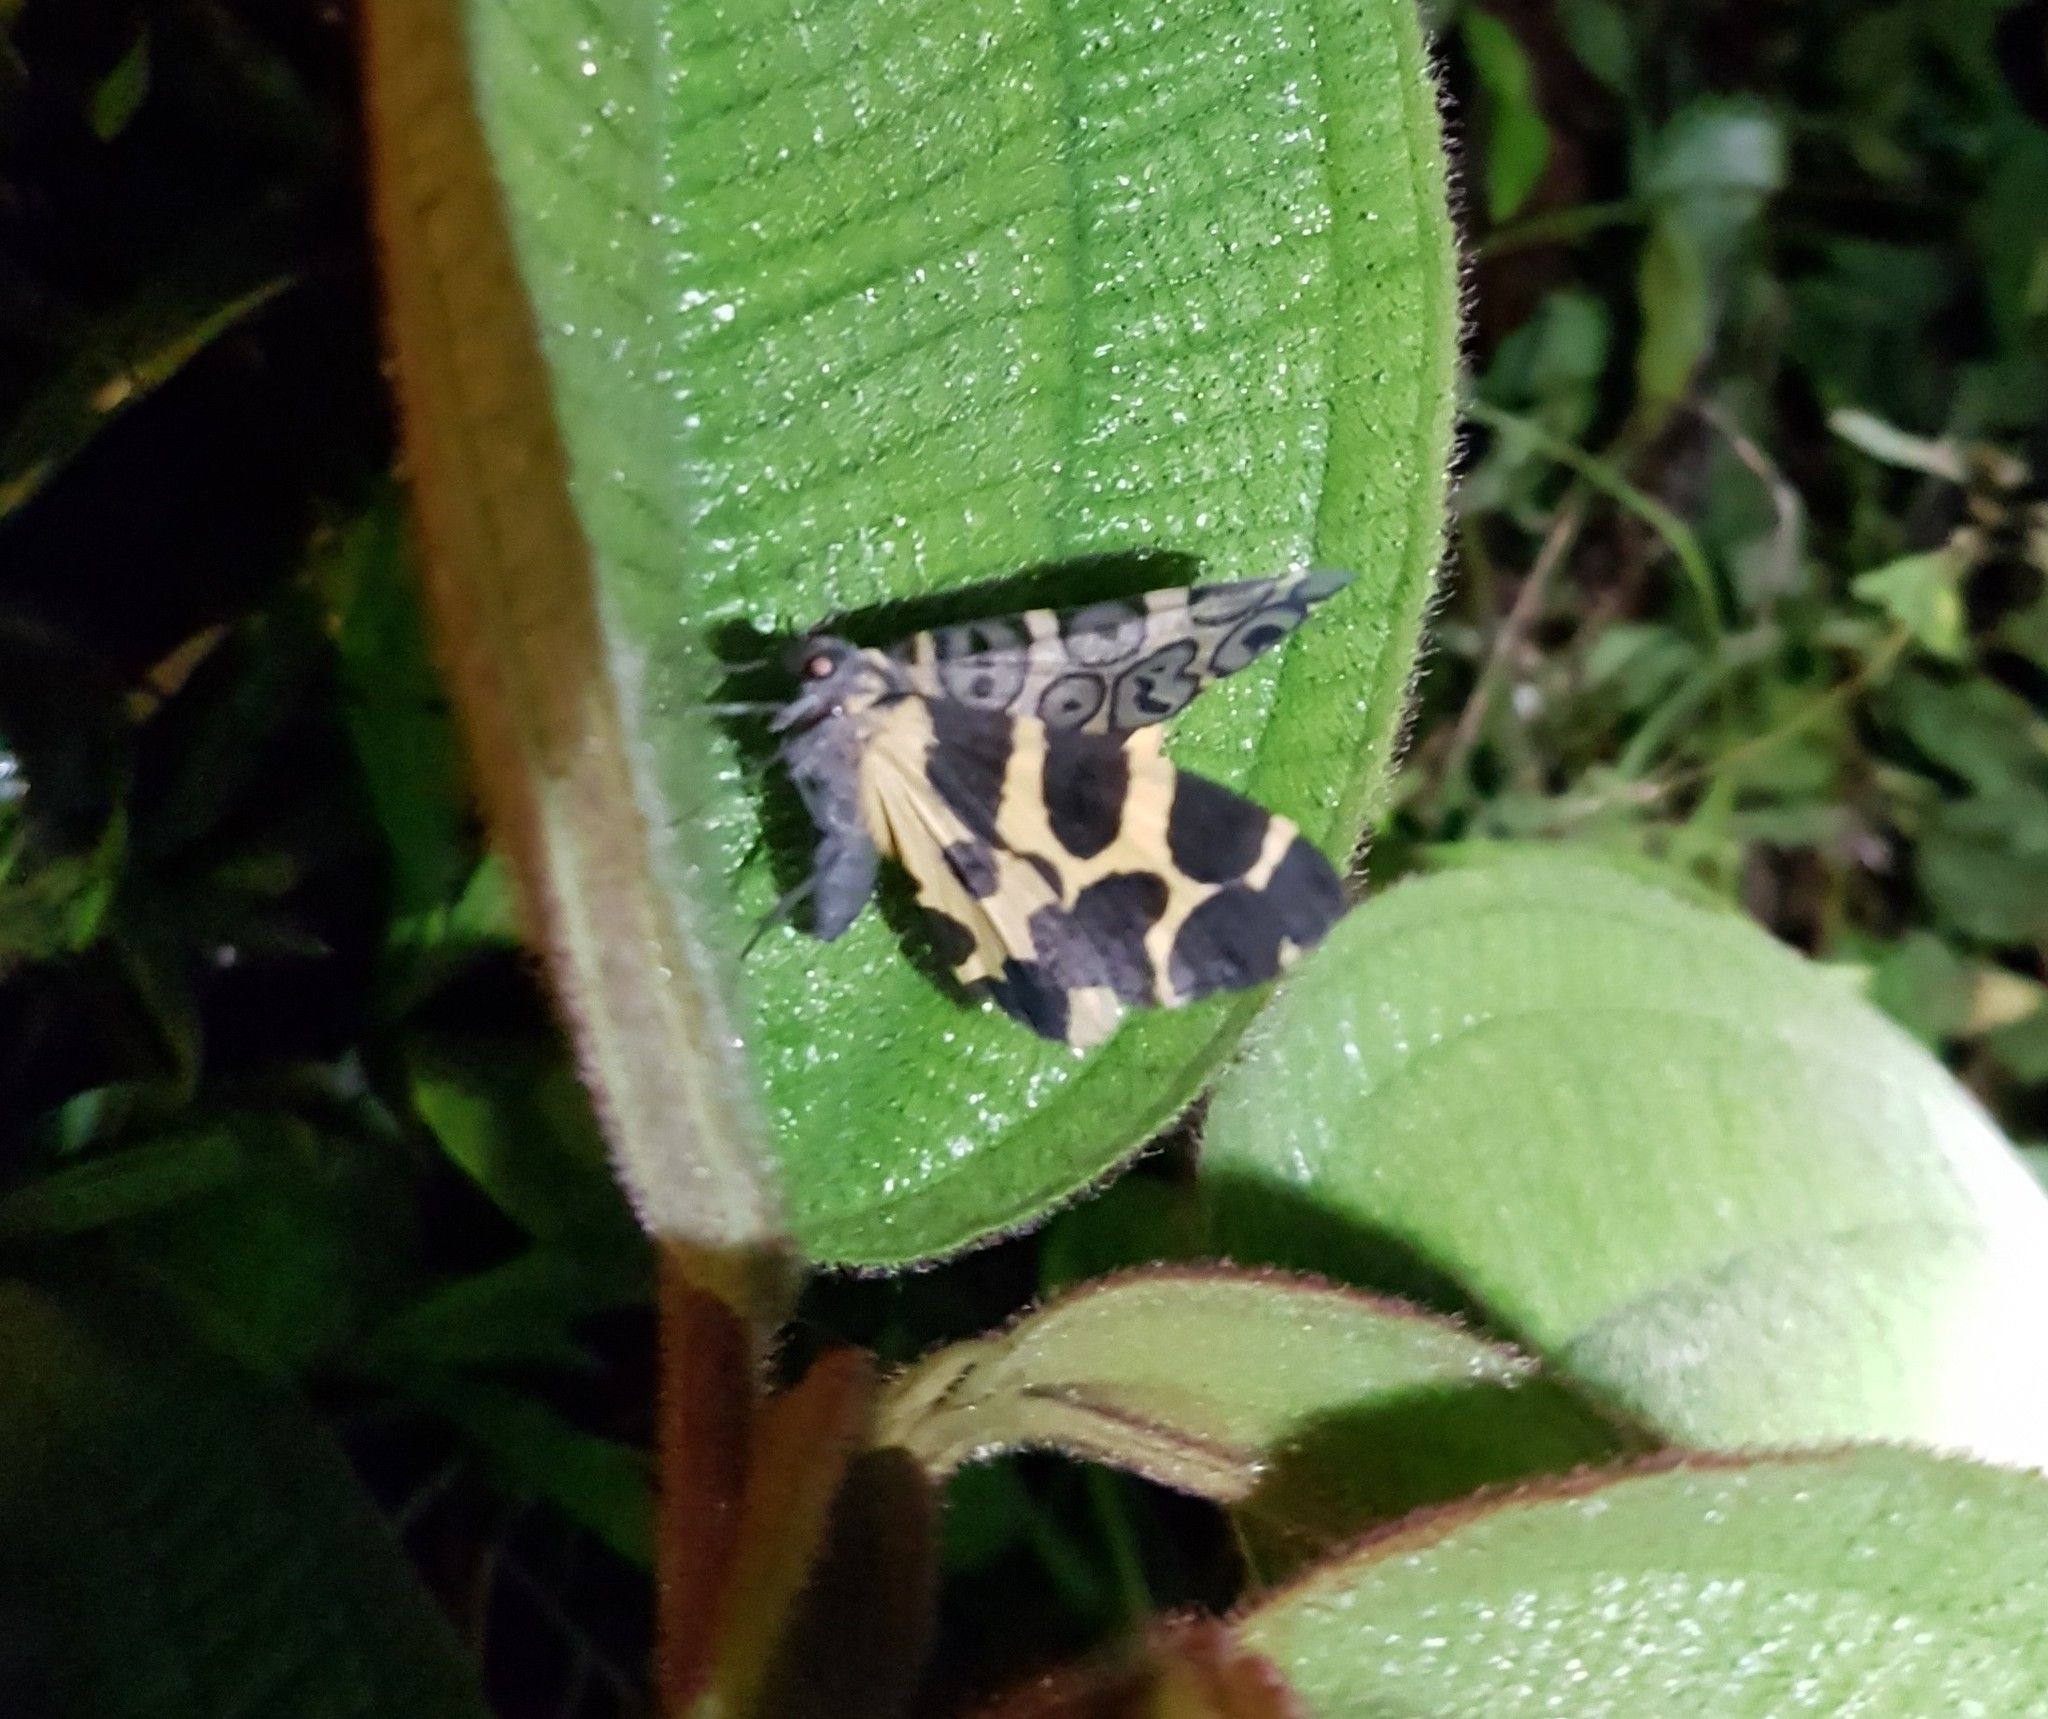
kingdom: Animalia
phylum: Arthropoda
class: Insecta
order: Lepidoptera
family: Geometridae
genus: Pantherodes
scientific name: Pantherodes pardalaria
